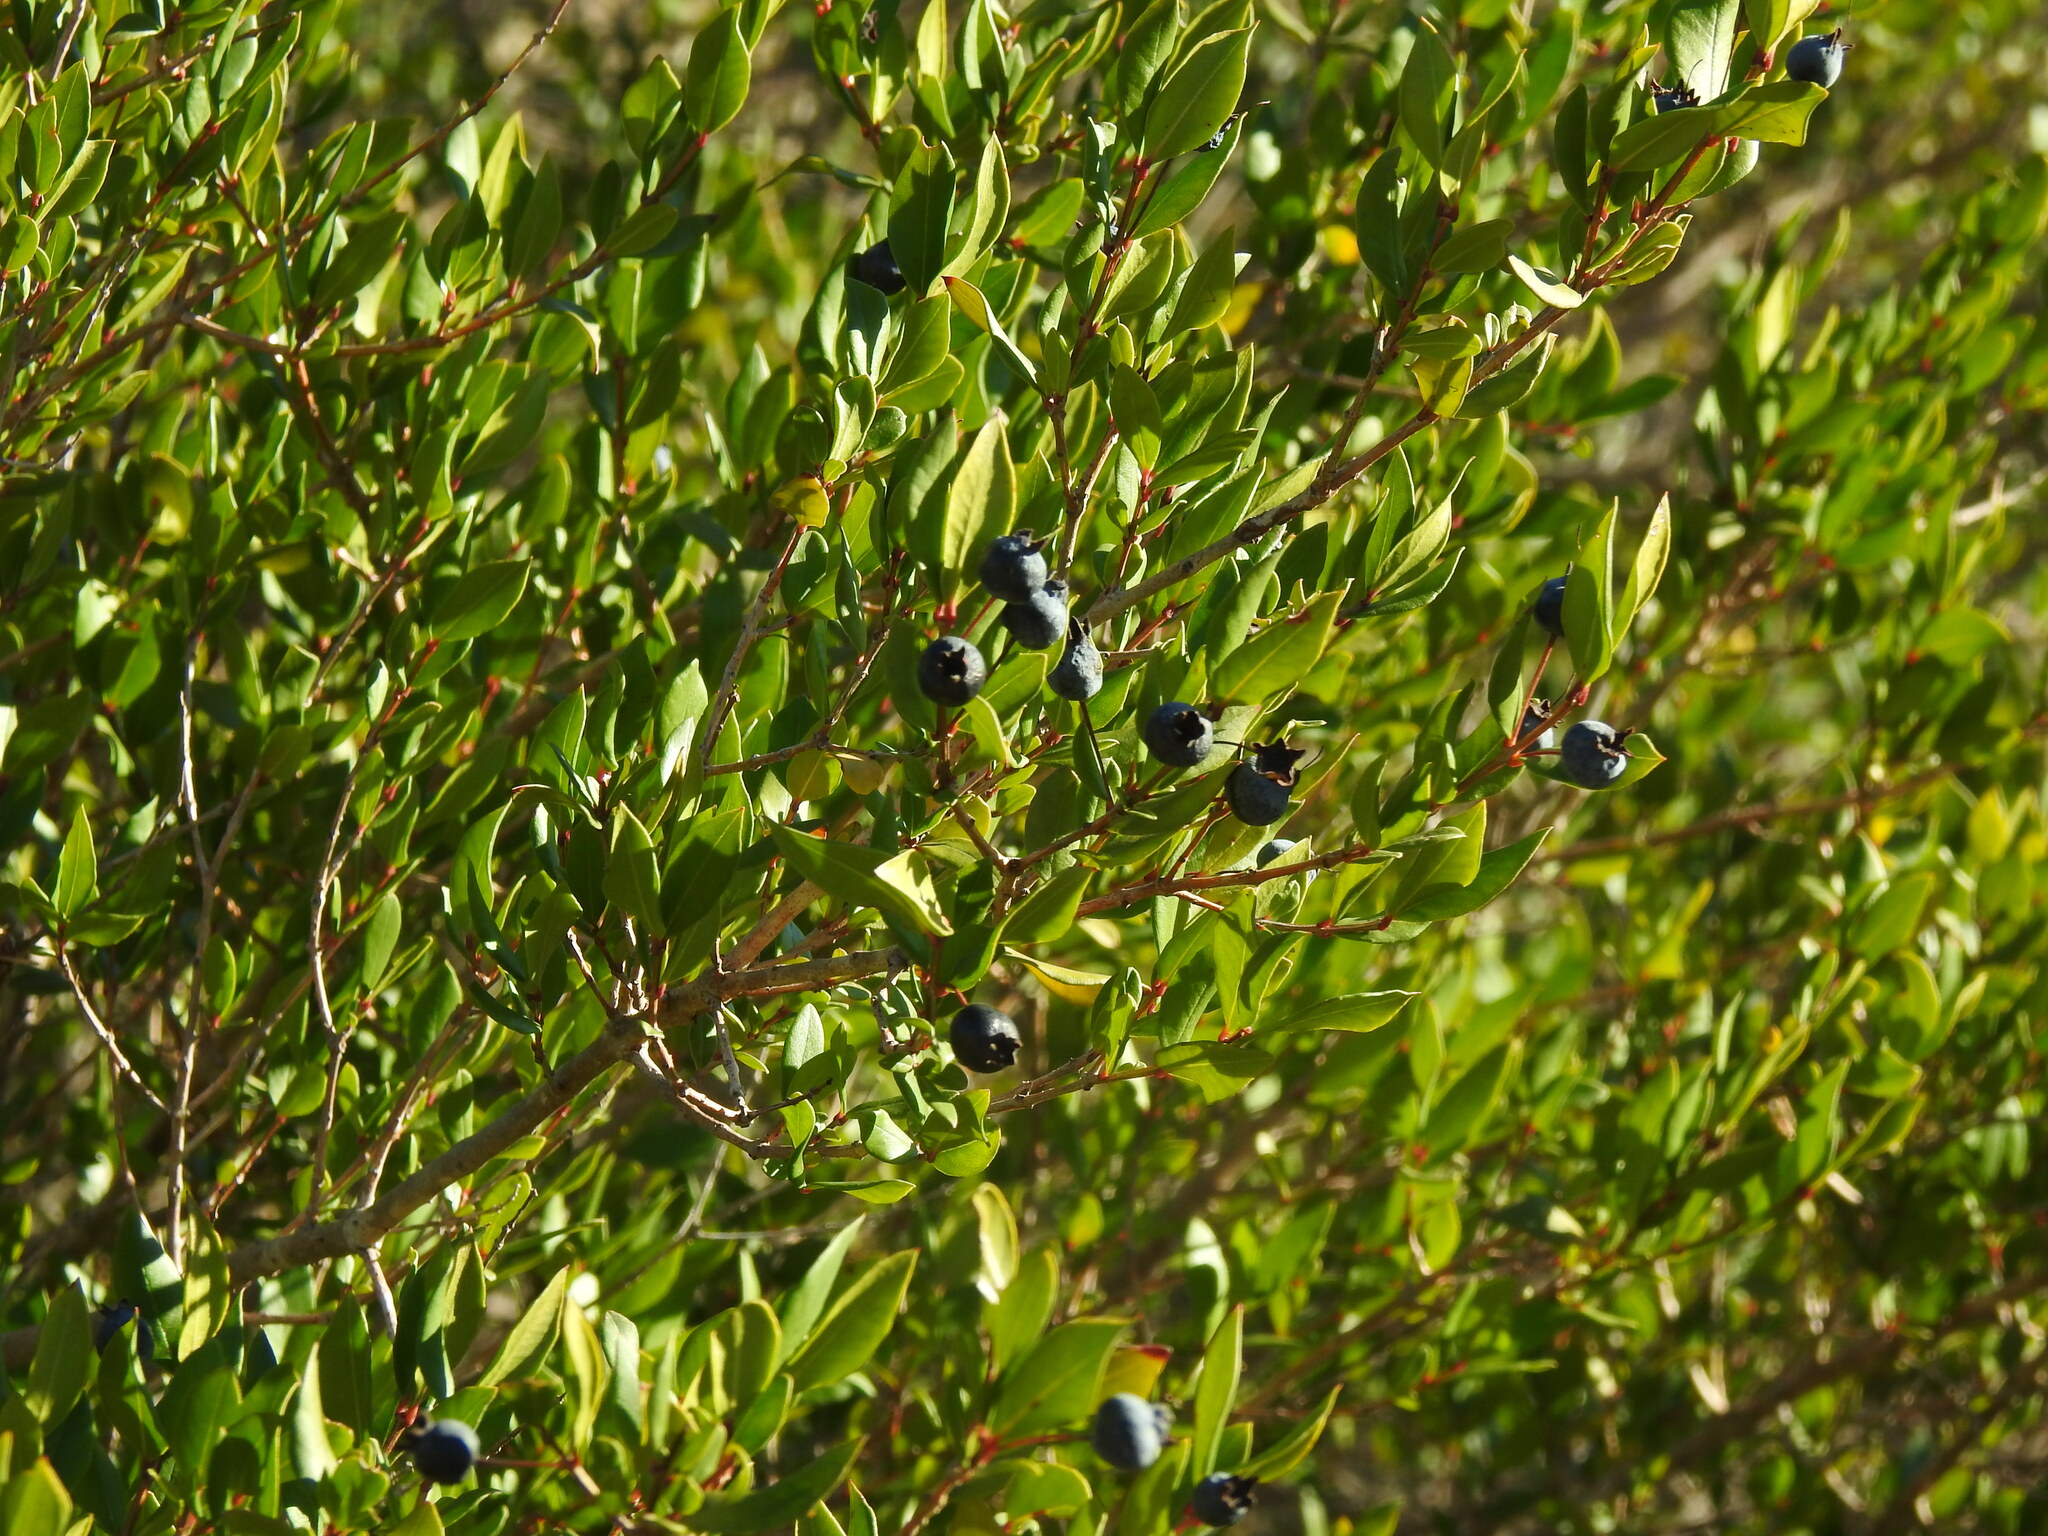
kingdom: Plantae
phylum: Tracheophyta
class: Magnoliopsida
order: Myrtales
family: Myrtaceae
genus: Myrtus
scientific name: Myrtus communis
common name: Myrtle
